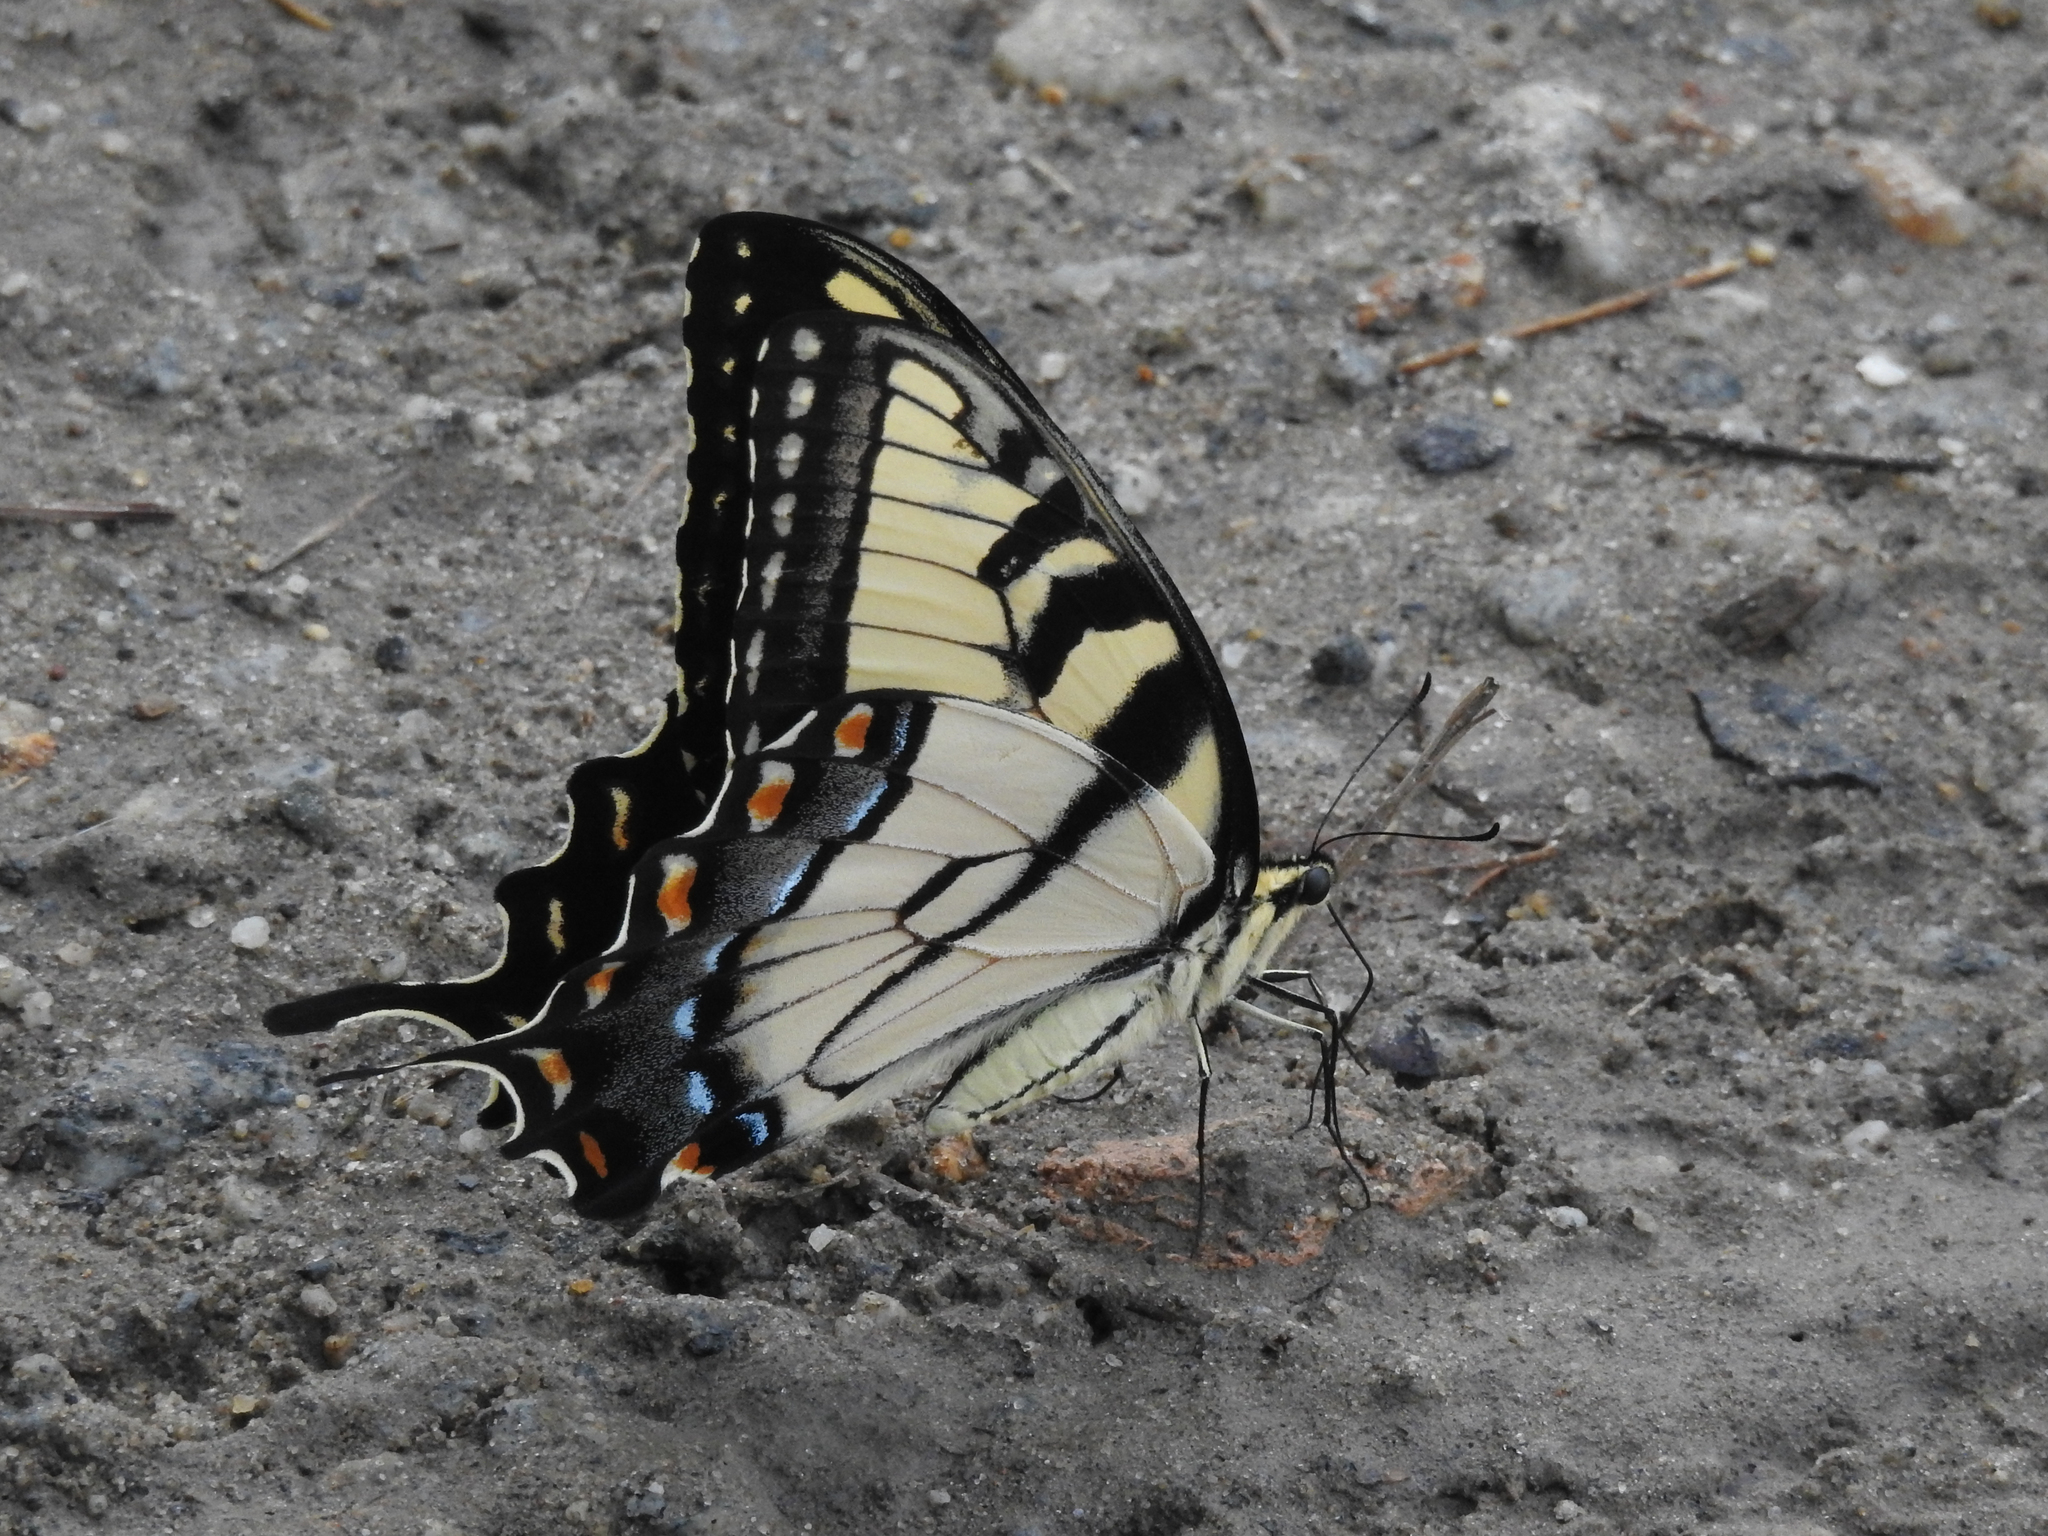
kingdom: Animalia
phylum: Arthropoda
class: Insecta
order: Lepidoptera
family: Papilionidae
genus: Papilio
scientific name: Papilio glaucus
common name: Tiger swallowtail
